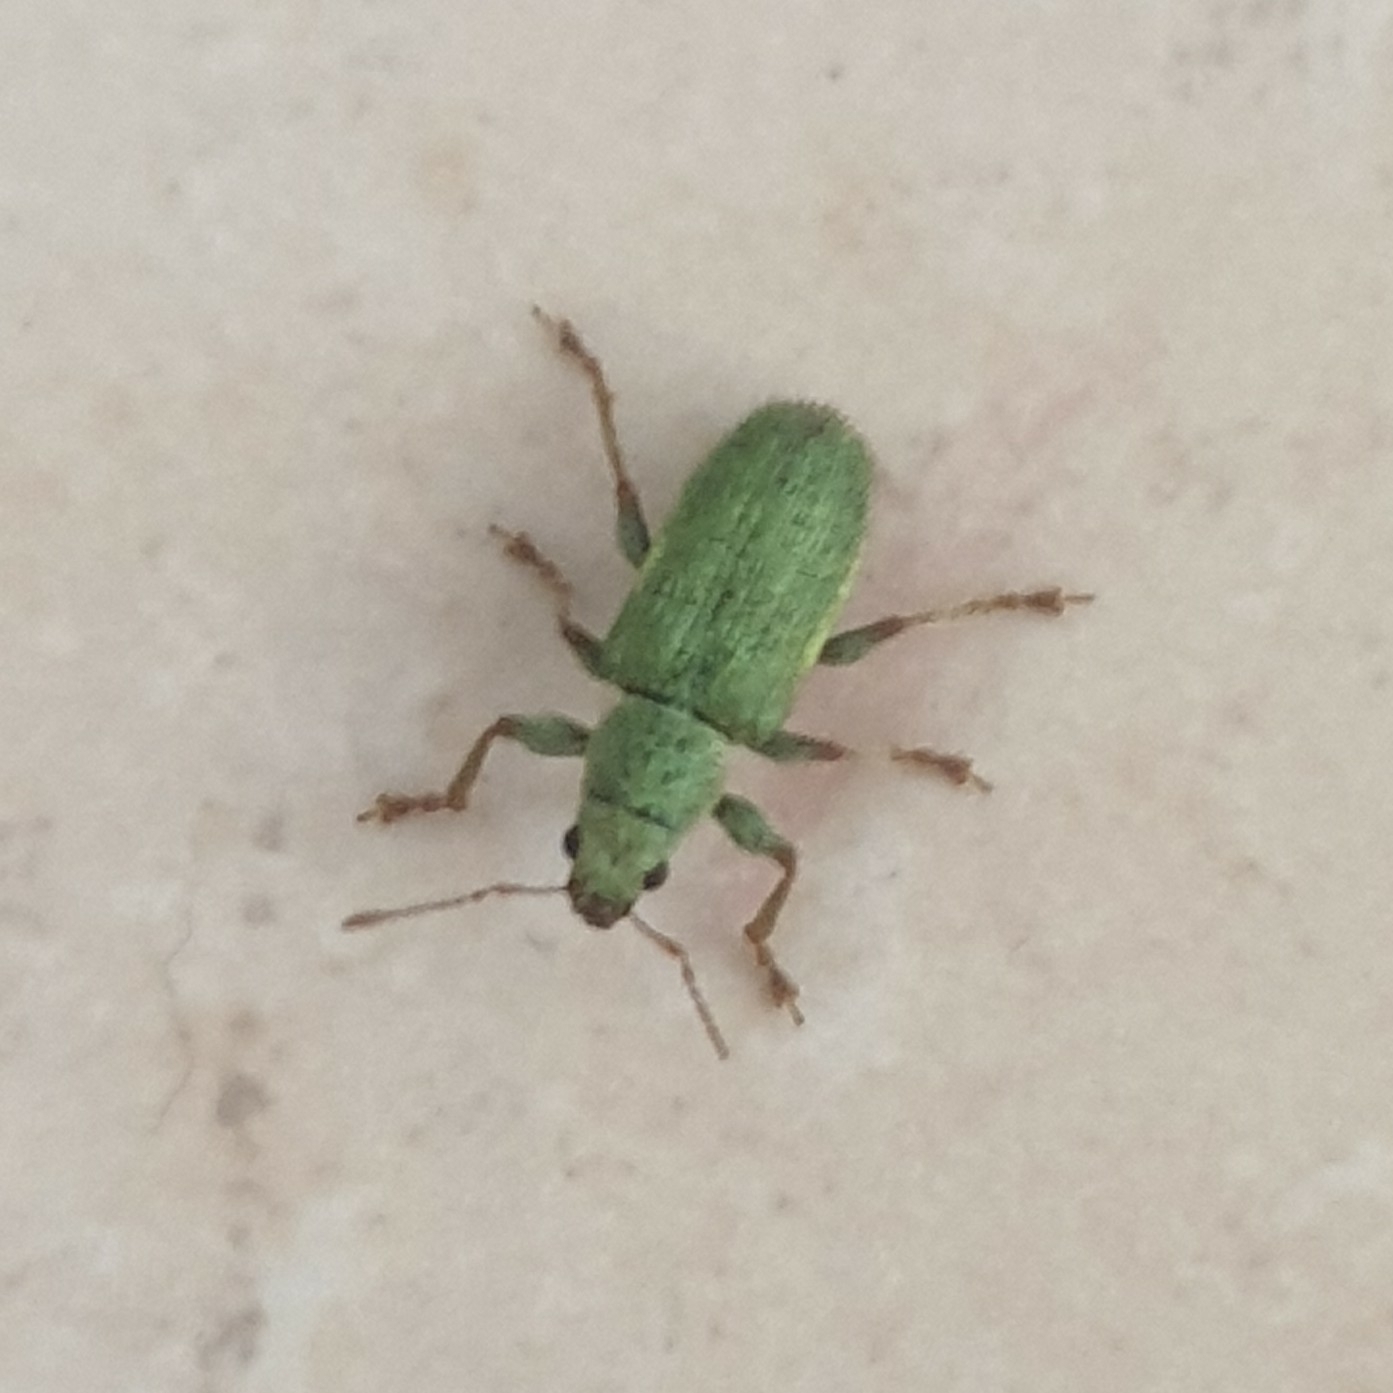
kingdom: Animalia
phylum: Arthropoda
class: Insecta
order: Coleoptera
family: Curculionidae
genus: Pachyrhinus
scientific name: Pachyrhinus lethierryi
